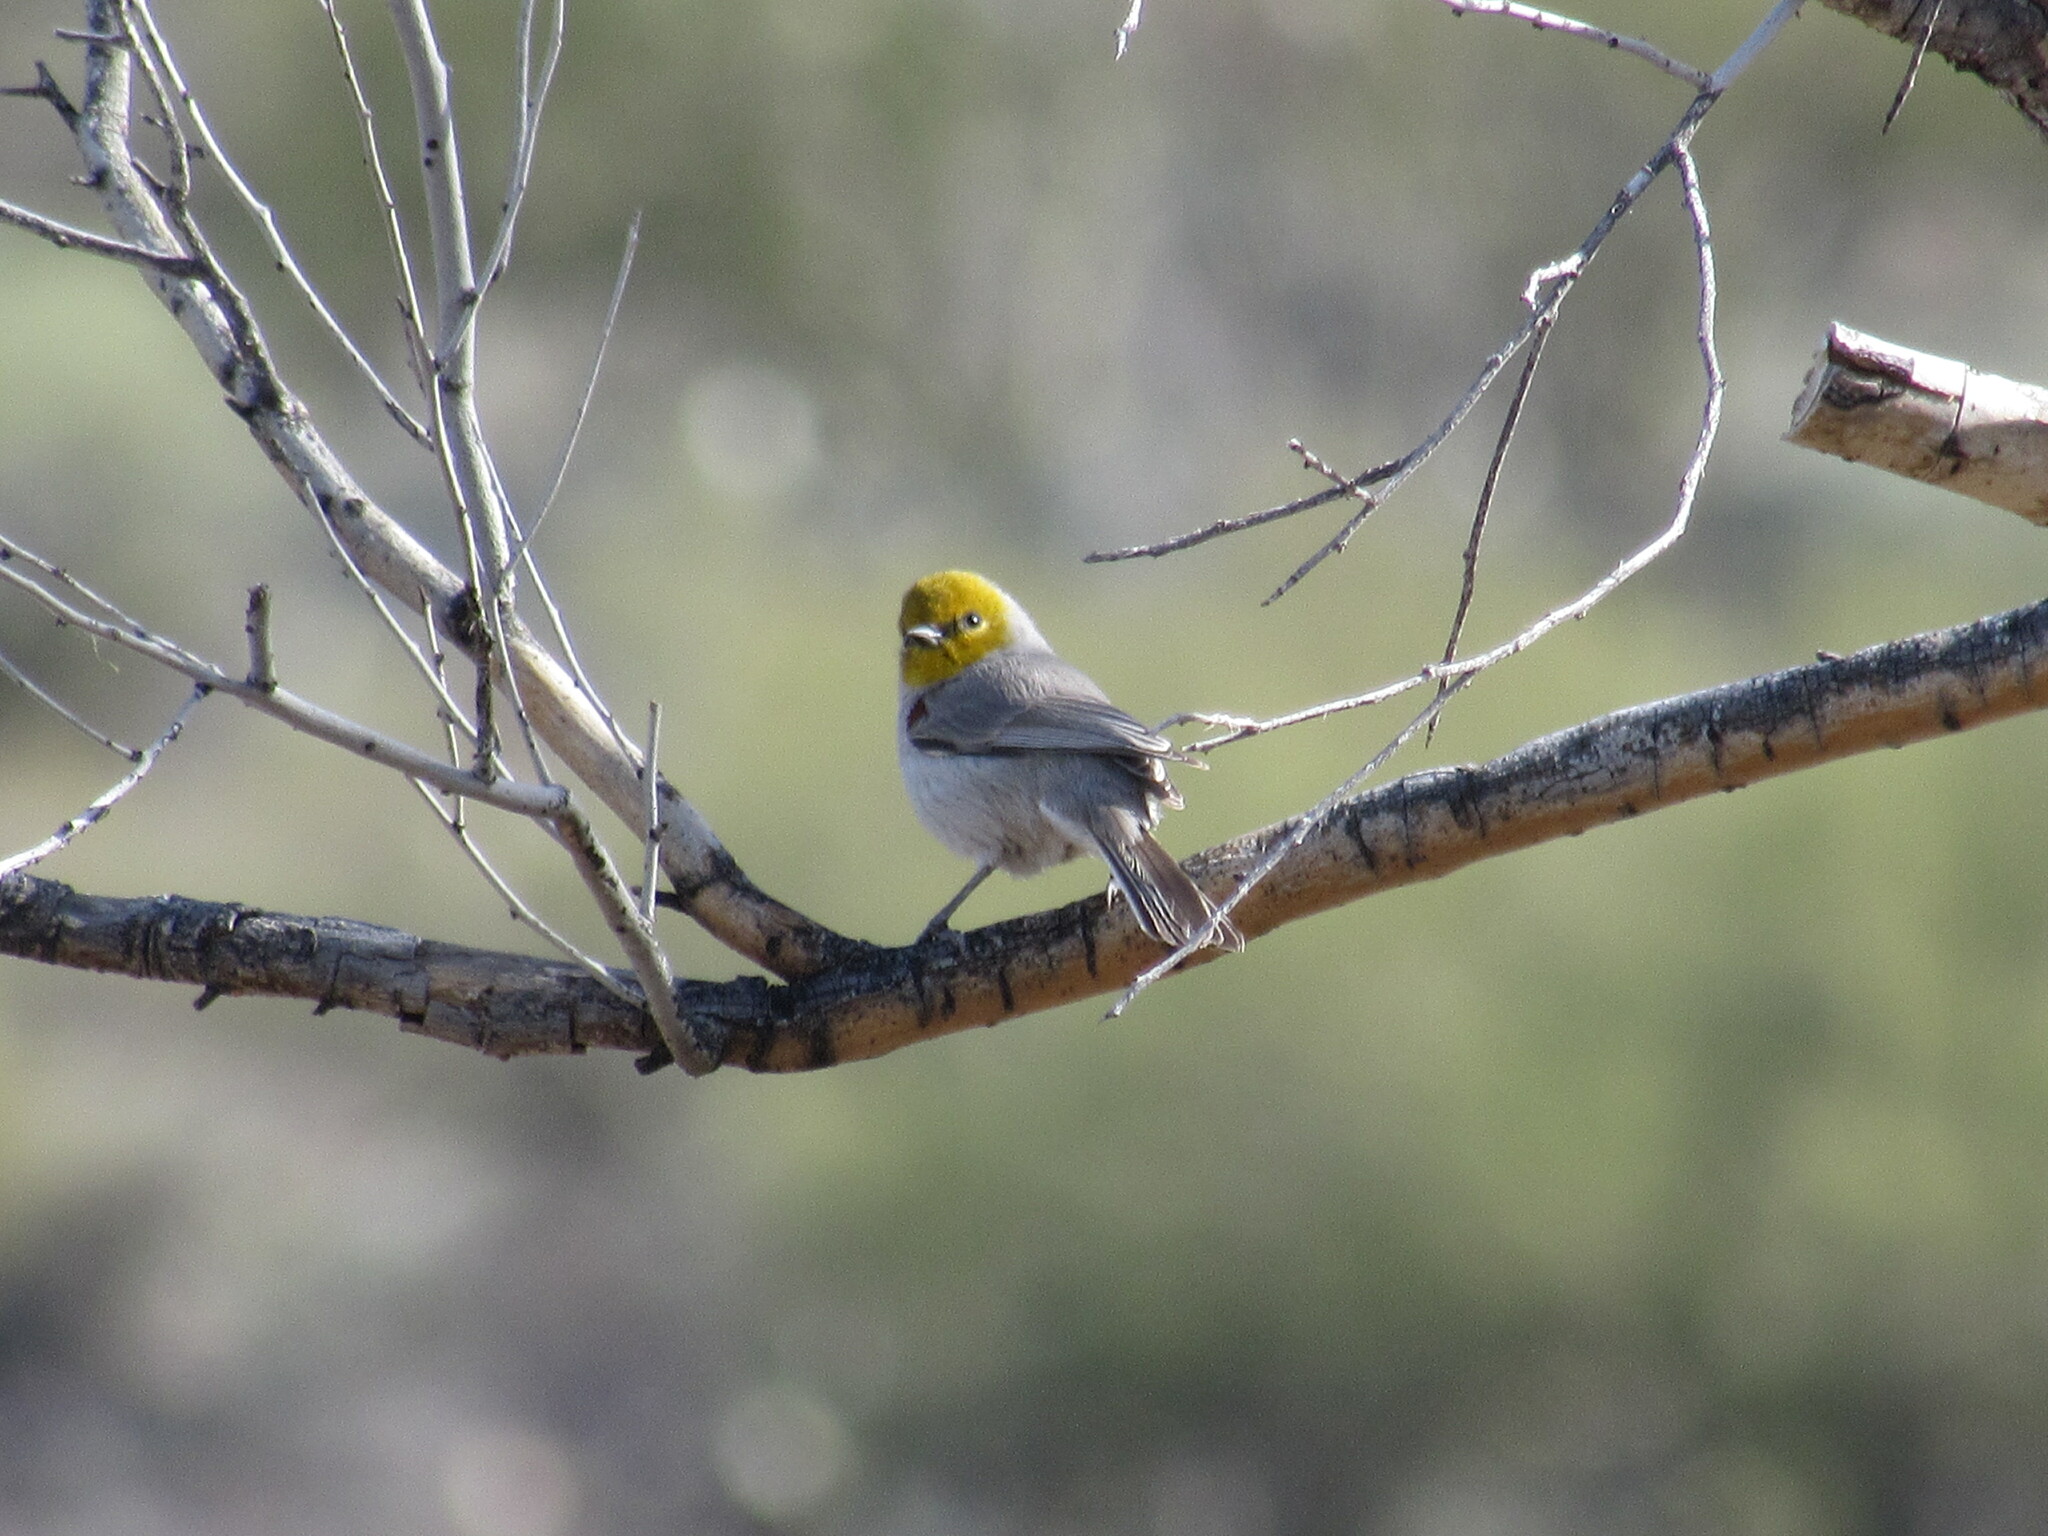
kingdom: Animalia
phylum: Chordata
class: Aves
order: Passeriformes
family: Remizidae
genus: Auriparus
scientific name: Auriparus flaviceps
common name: Verdin
